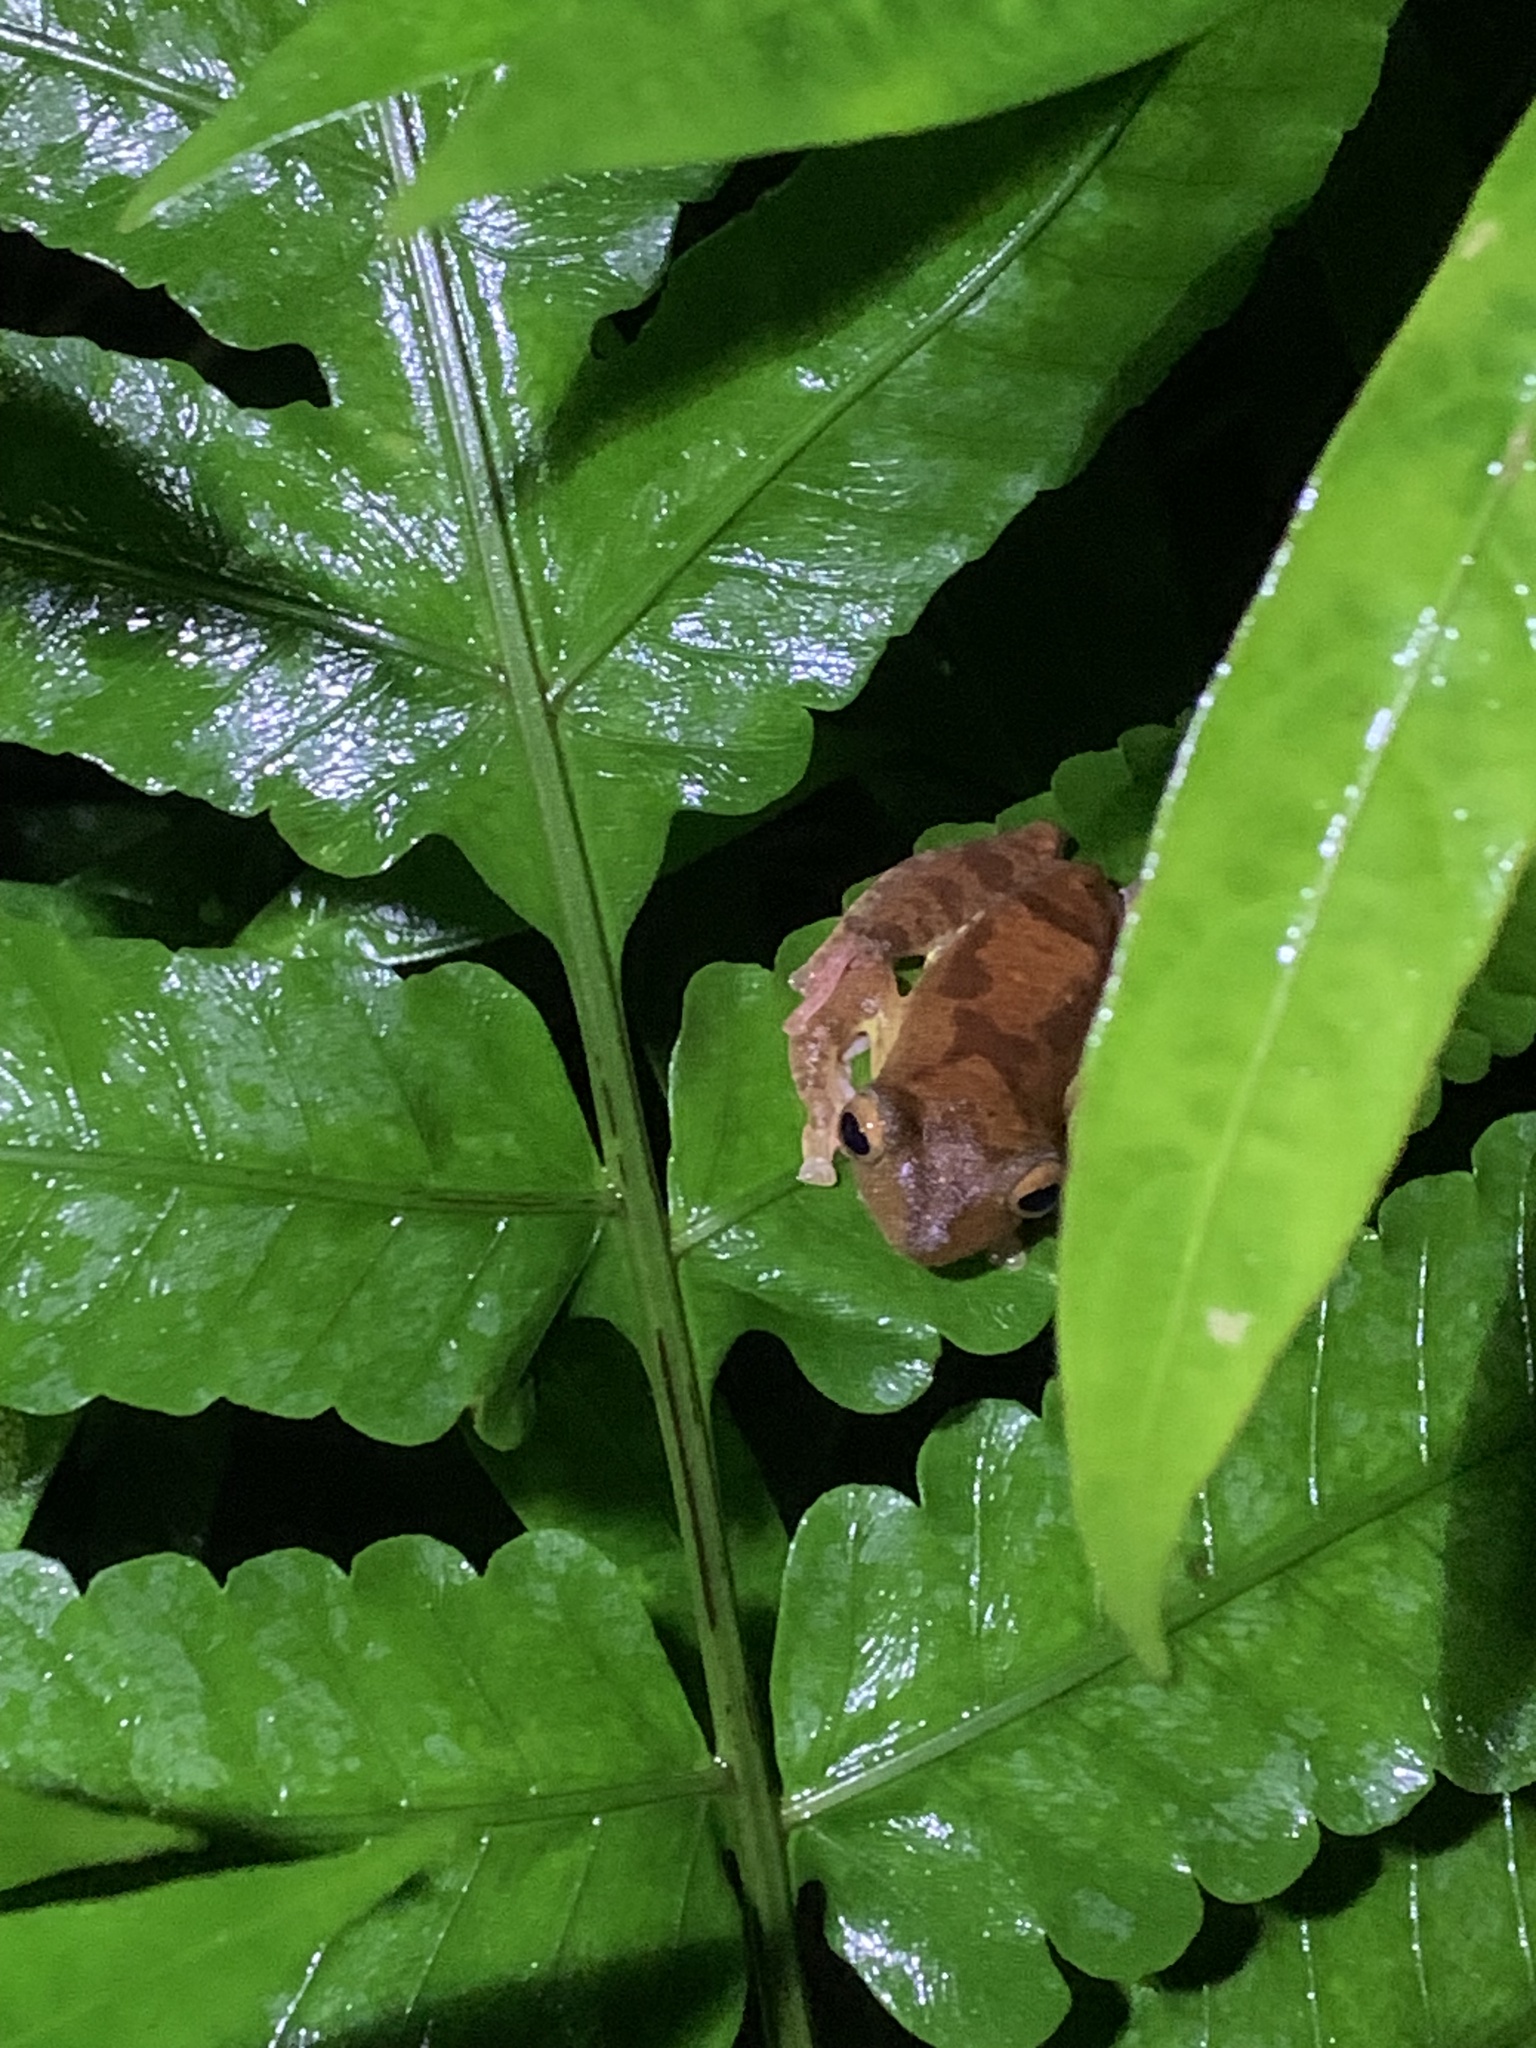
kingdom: Animalia
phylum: Chordata
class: Amphibia
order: Anura
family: Rhacophoridae
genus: Rhacophorus
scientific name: Rhacophorus pardalis
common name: Harlequin tree frog
